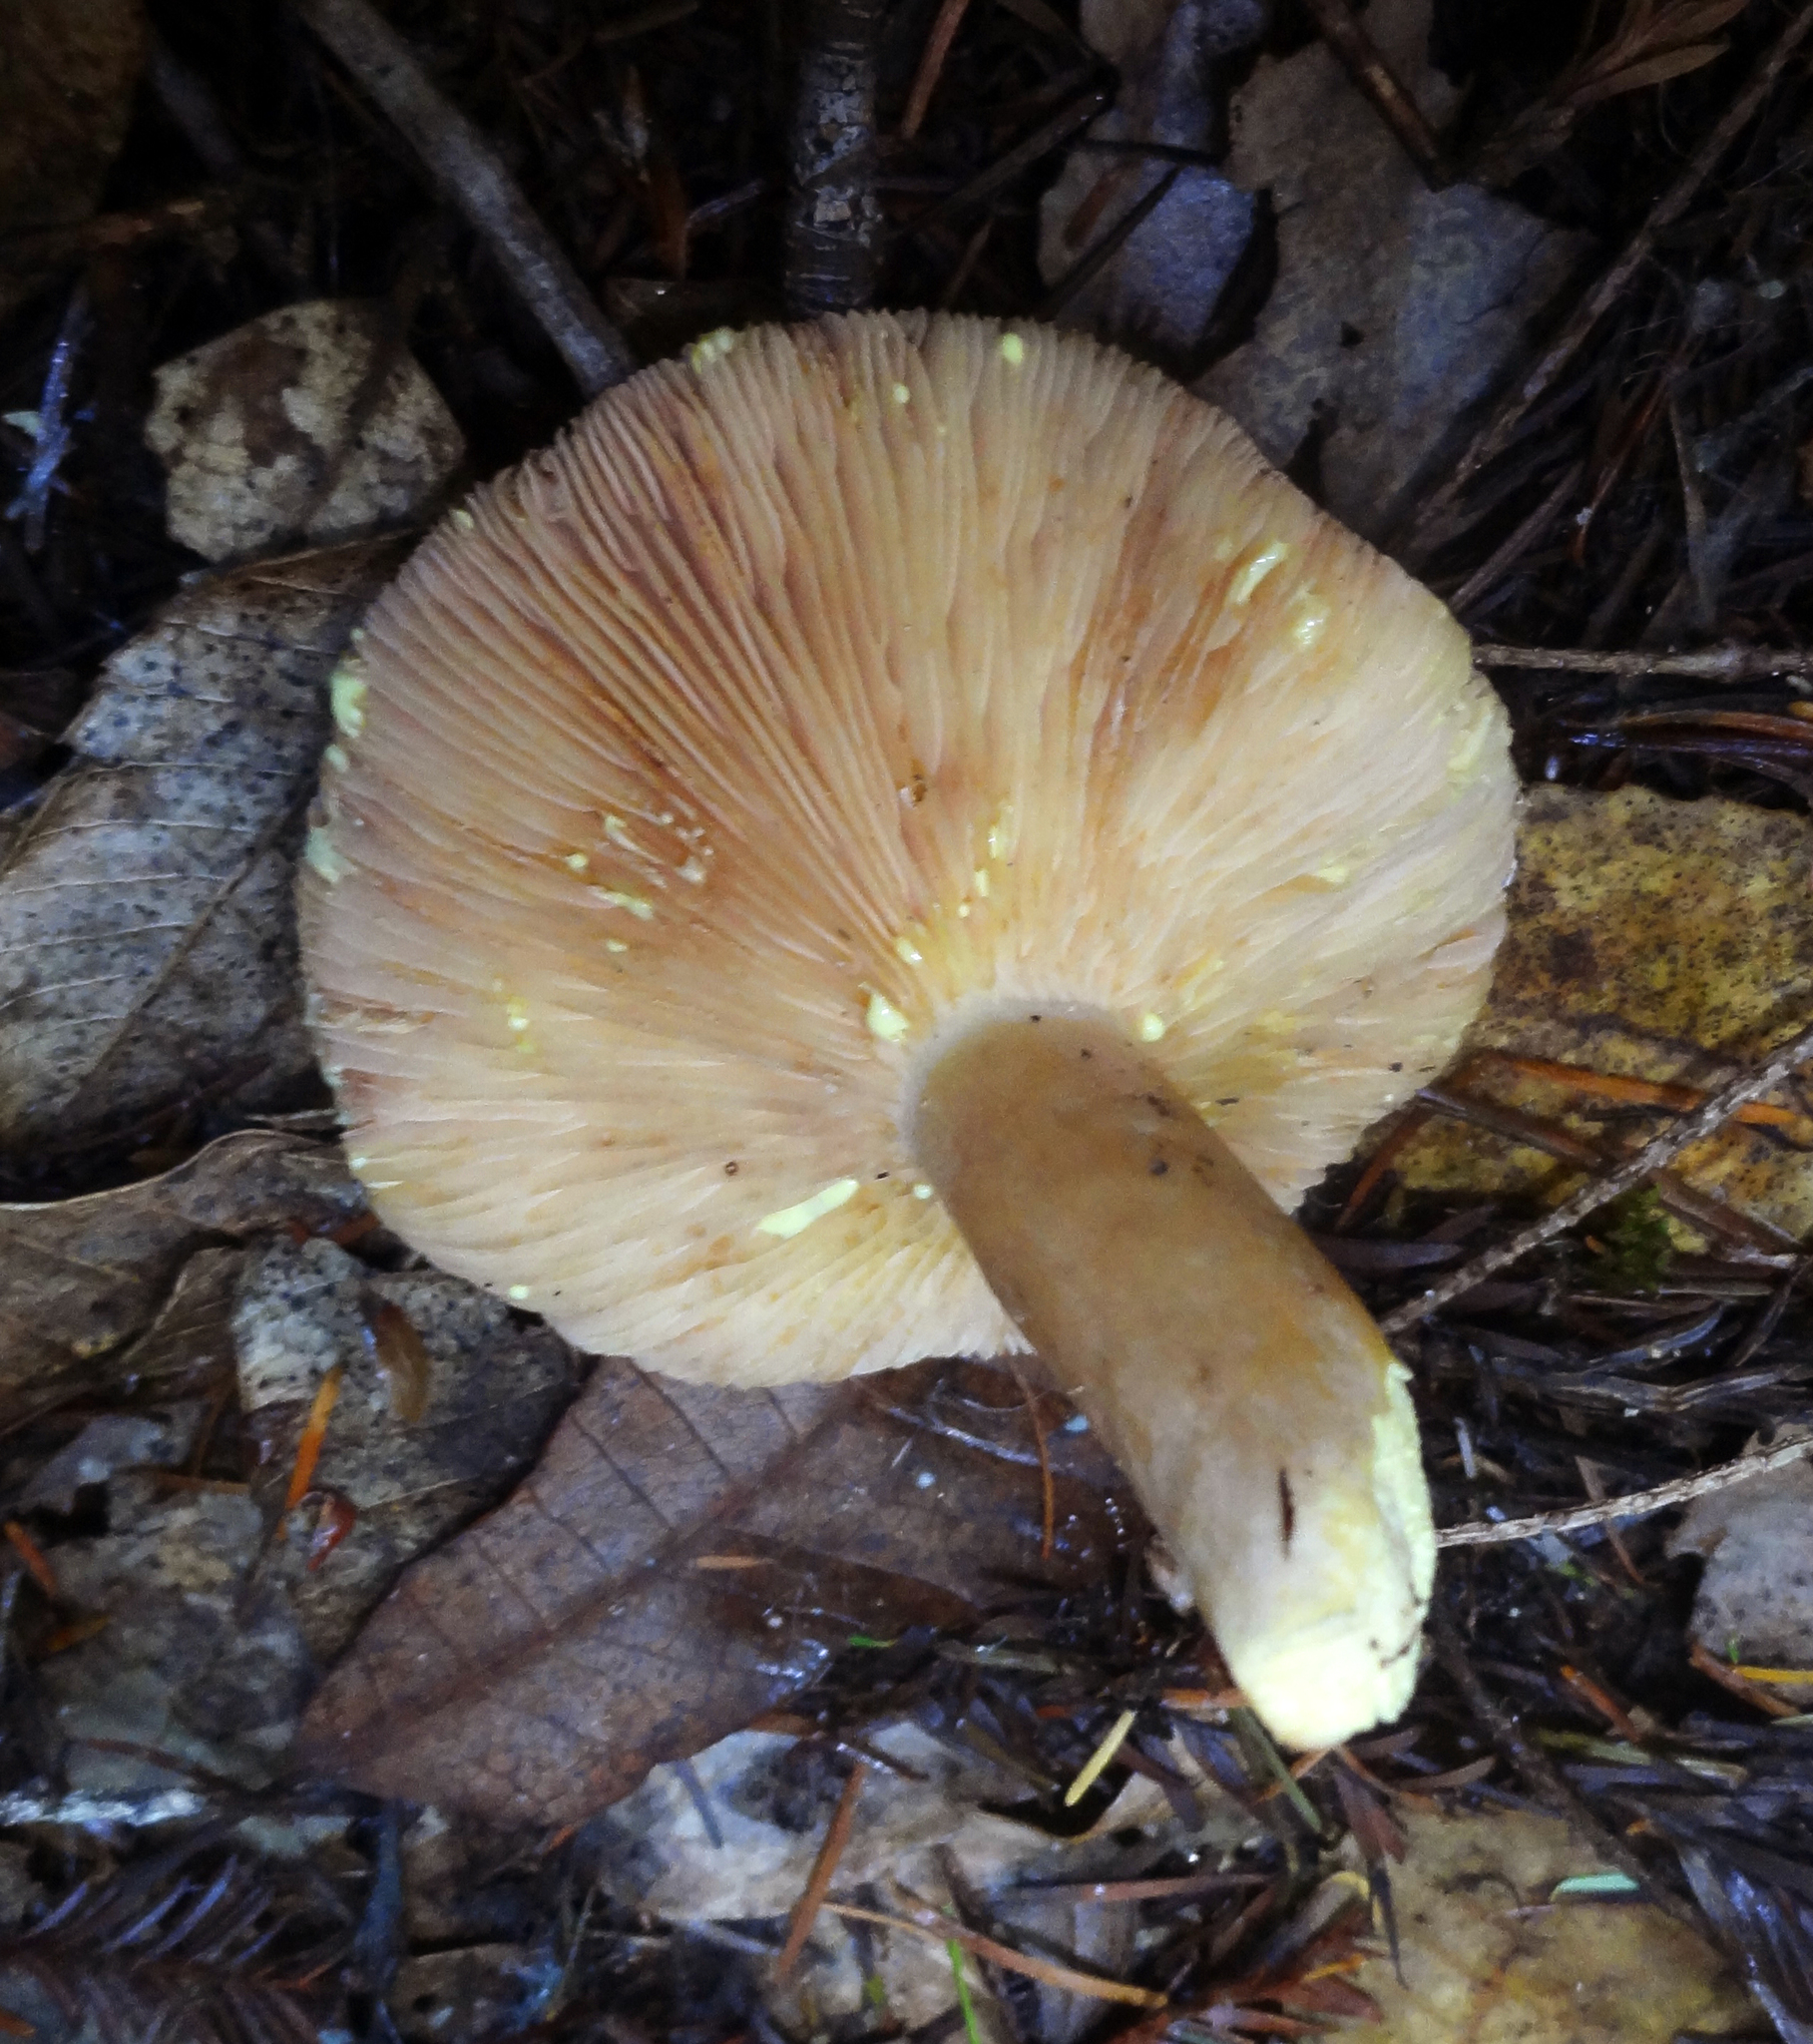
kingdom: Fungi
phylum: Basidiomycota
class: Agaricomycetes
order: Russulales
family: Russulaceae
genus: Lactarius
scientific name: Lactarius xanthogalactus
